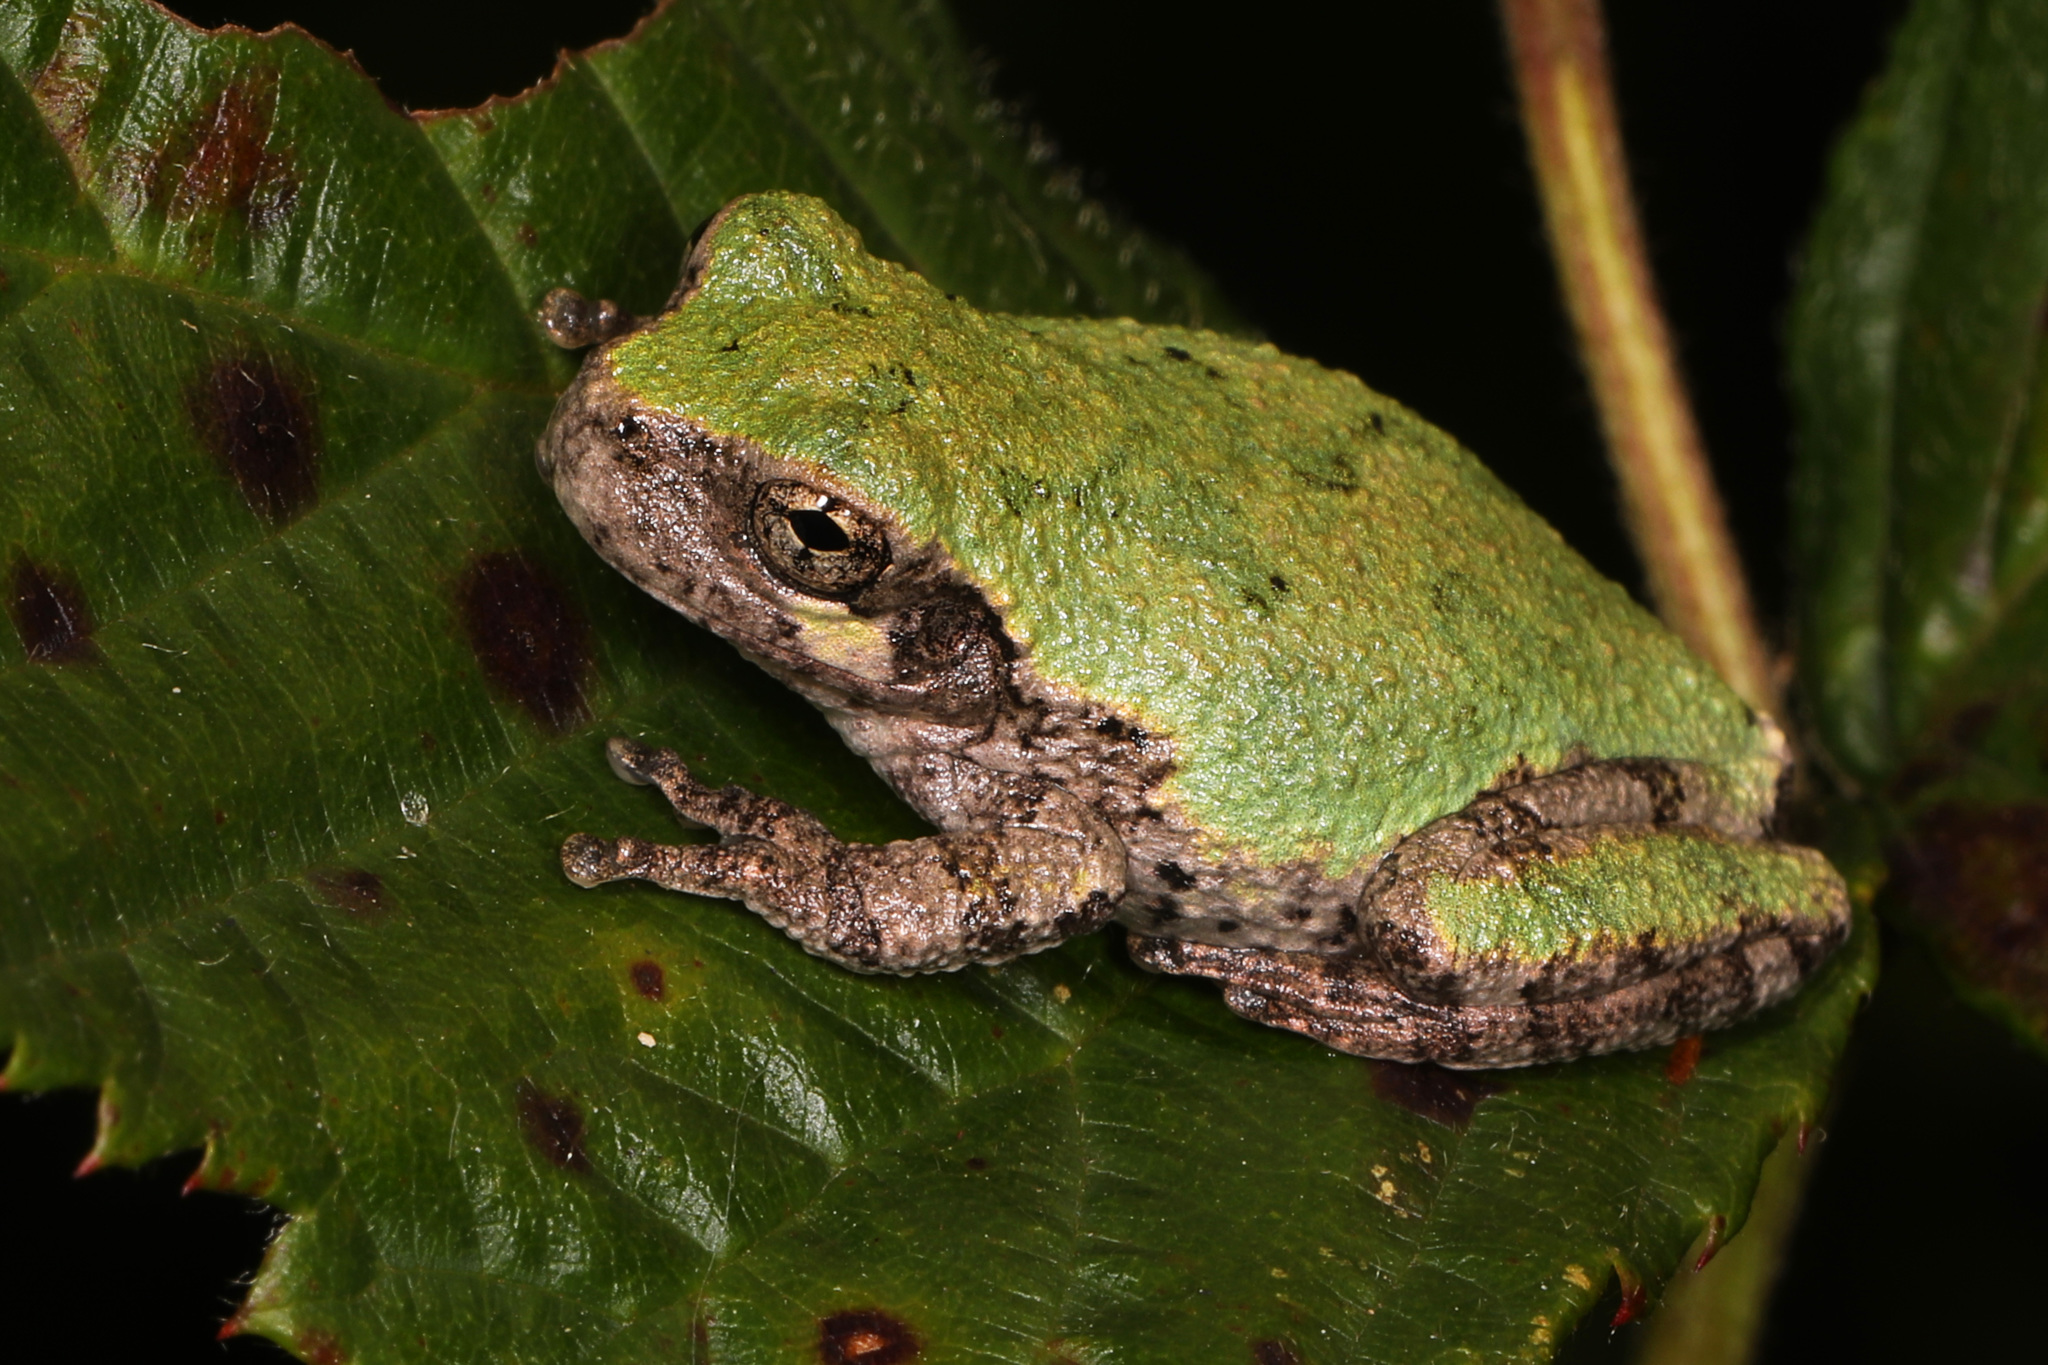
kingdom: Animalia
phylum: Chordata
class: Amphibia
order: Anura
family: Hylidae
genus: Hyla
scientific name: Hyla
